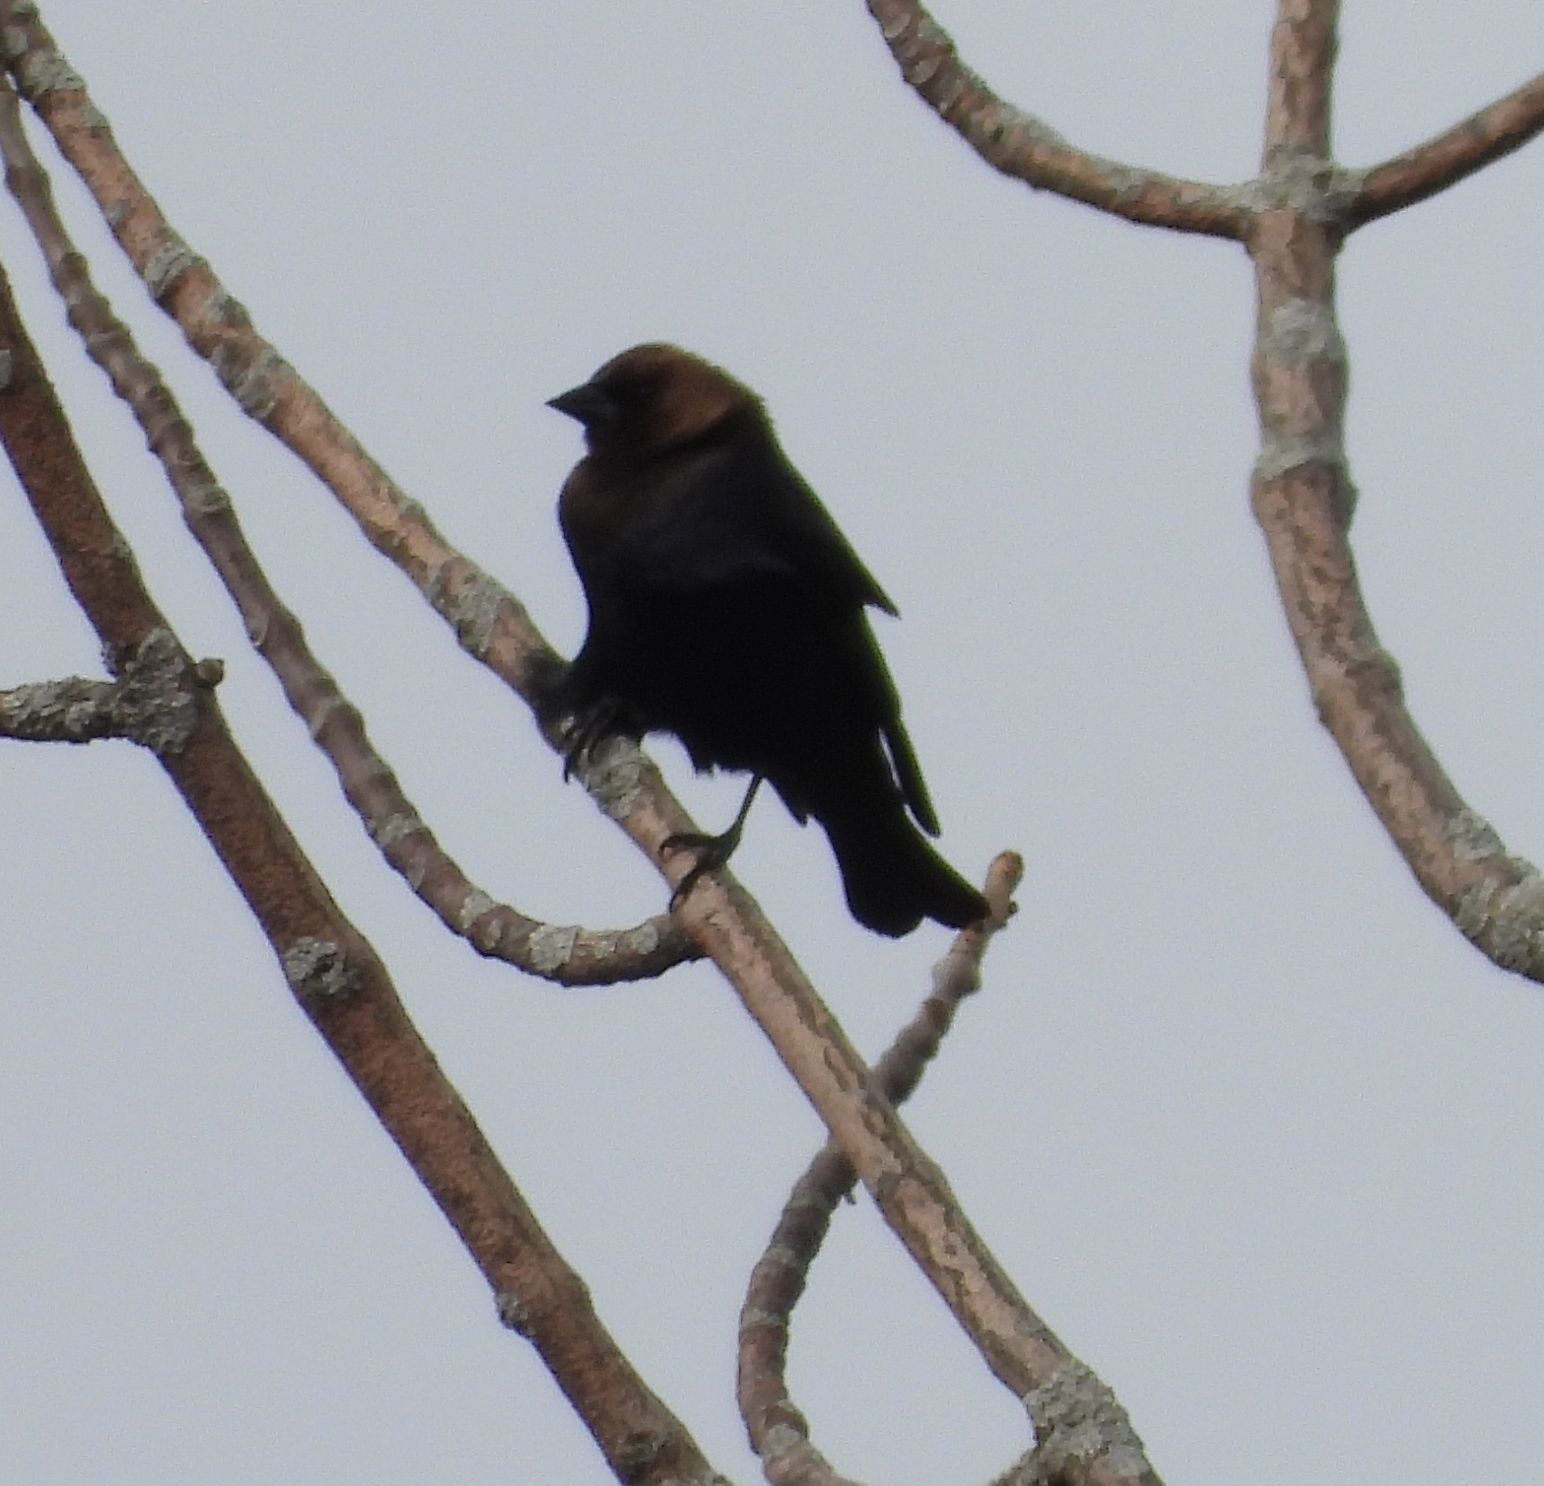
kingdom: Animalia
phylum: Chordata
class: Aves
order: Passeriformes
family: Icteridae
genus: Molothrus
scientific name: Molothrus ater
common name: Brown-headed cowbird
